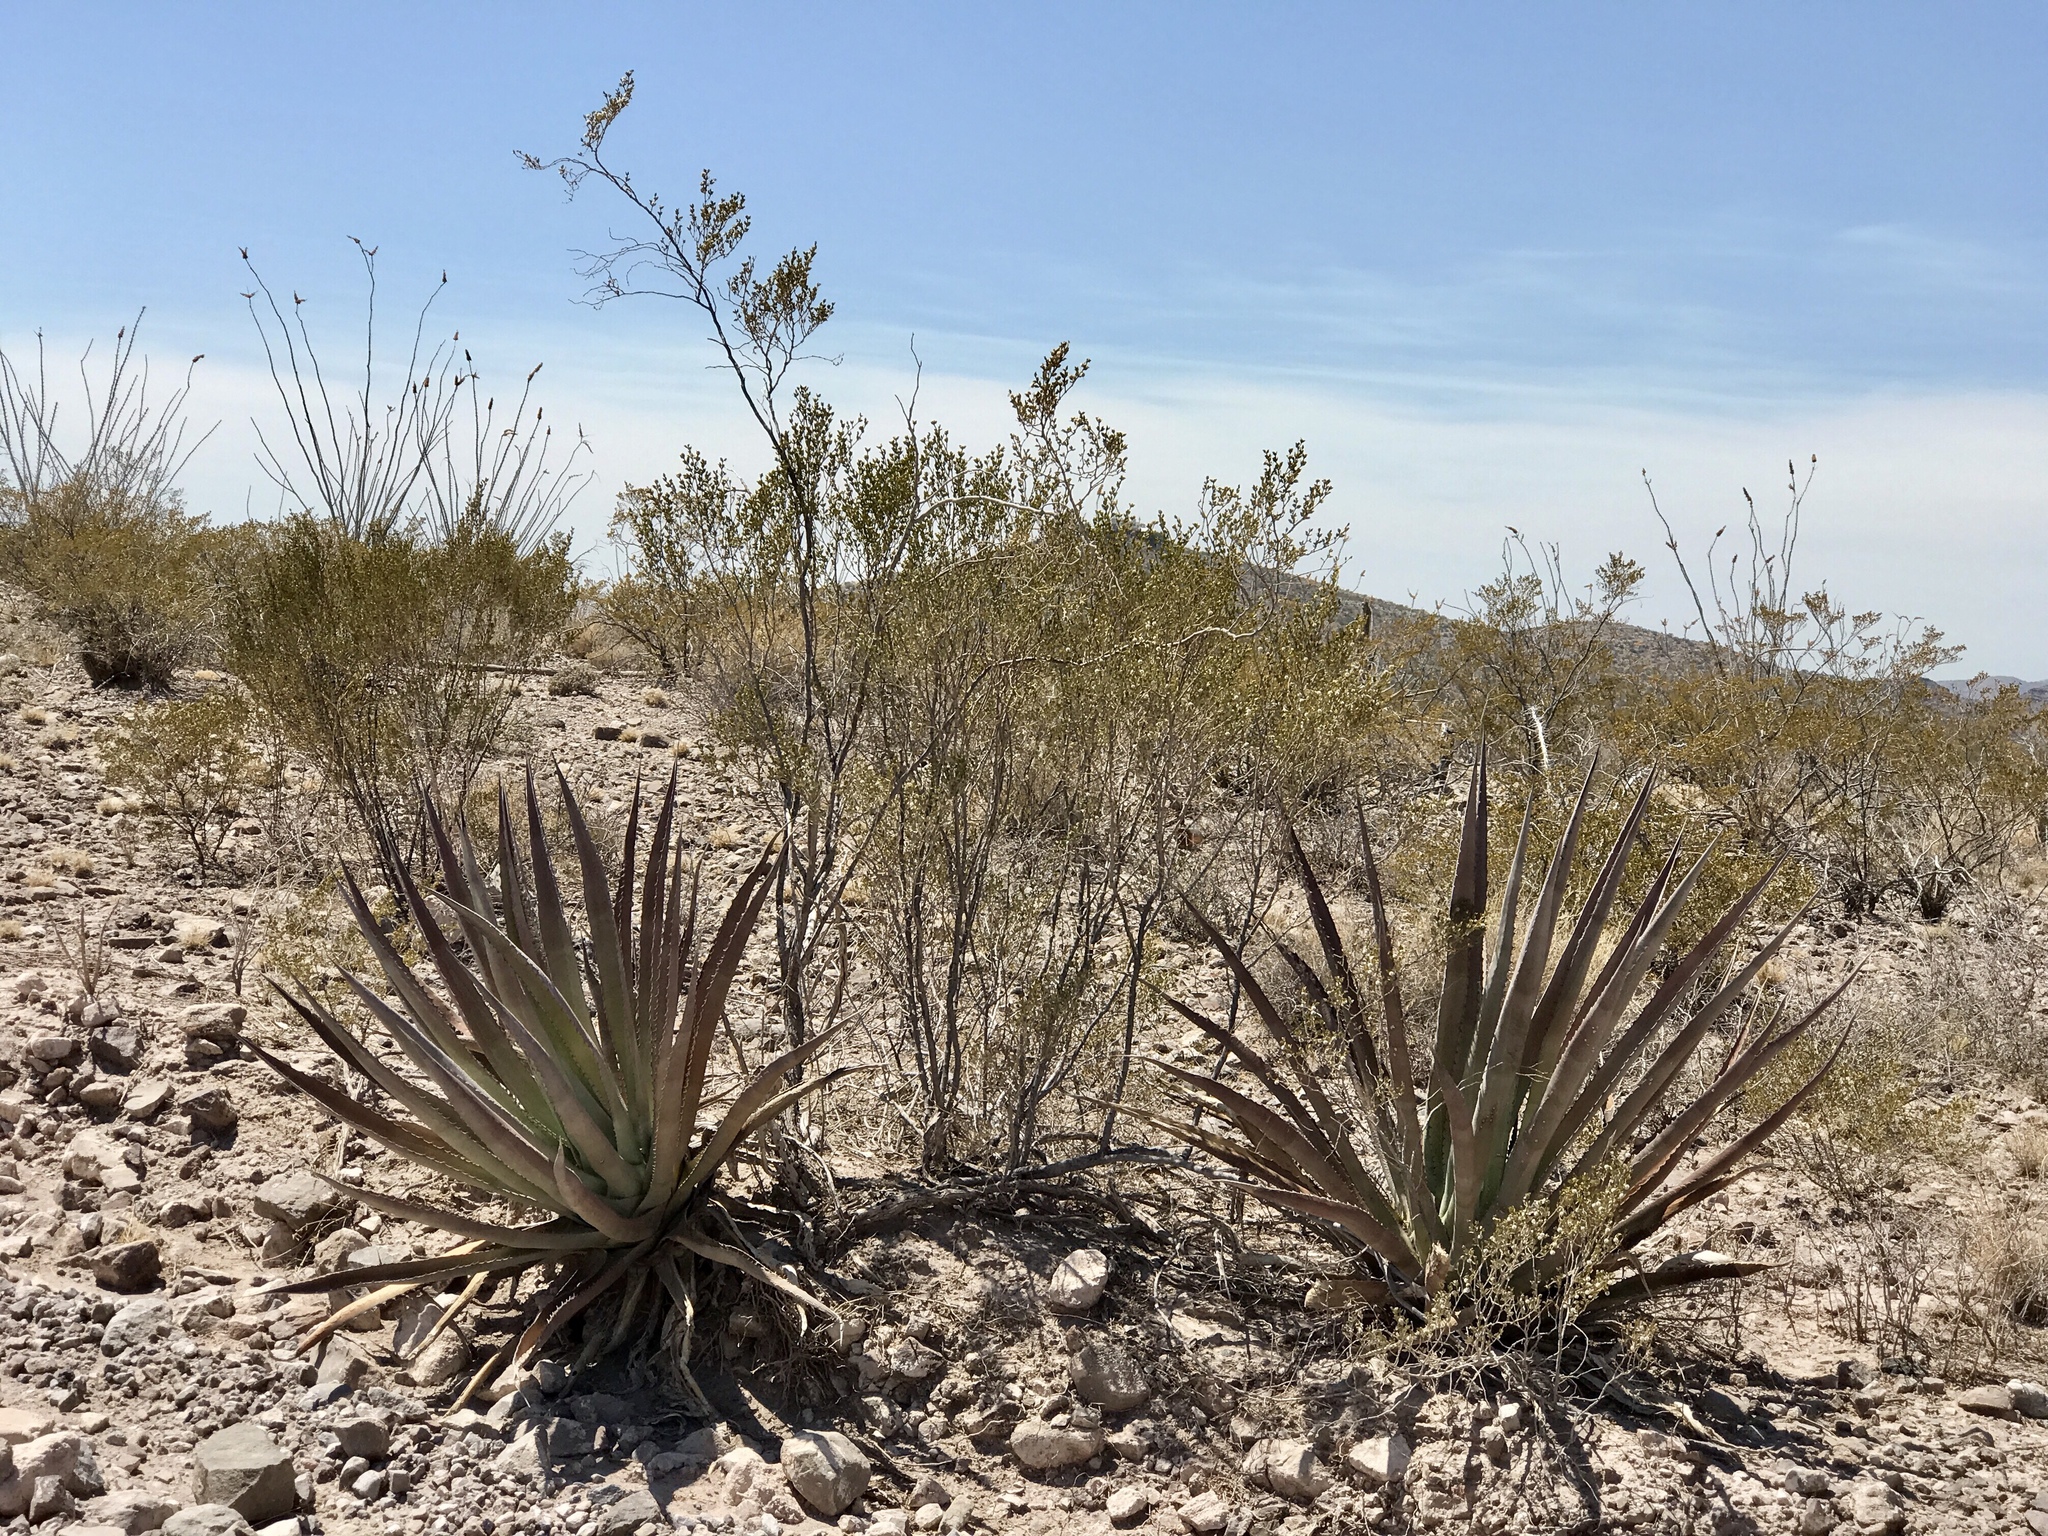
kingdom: Plantae
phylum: Tracheophyta
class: Liliopsida
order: Asparagales
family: Asparagaceae
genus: Agave
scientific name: Agave palmeri
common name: Palmer agave
